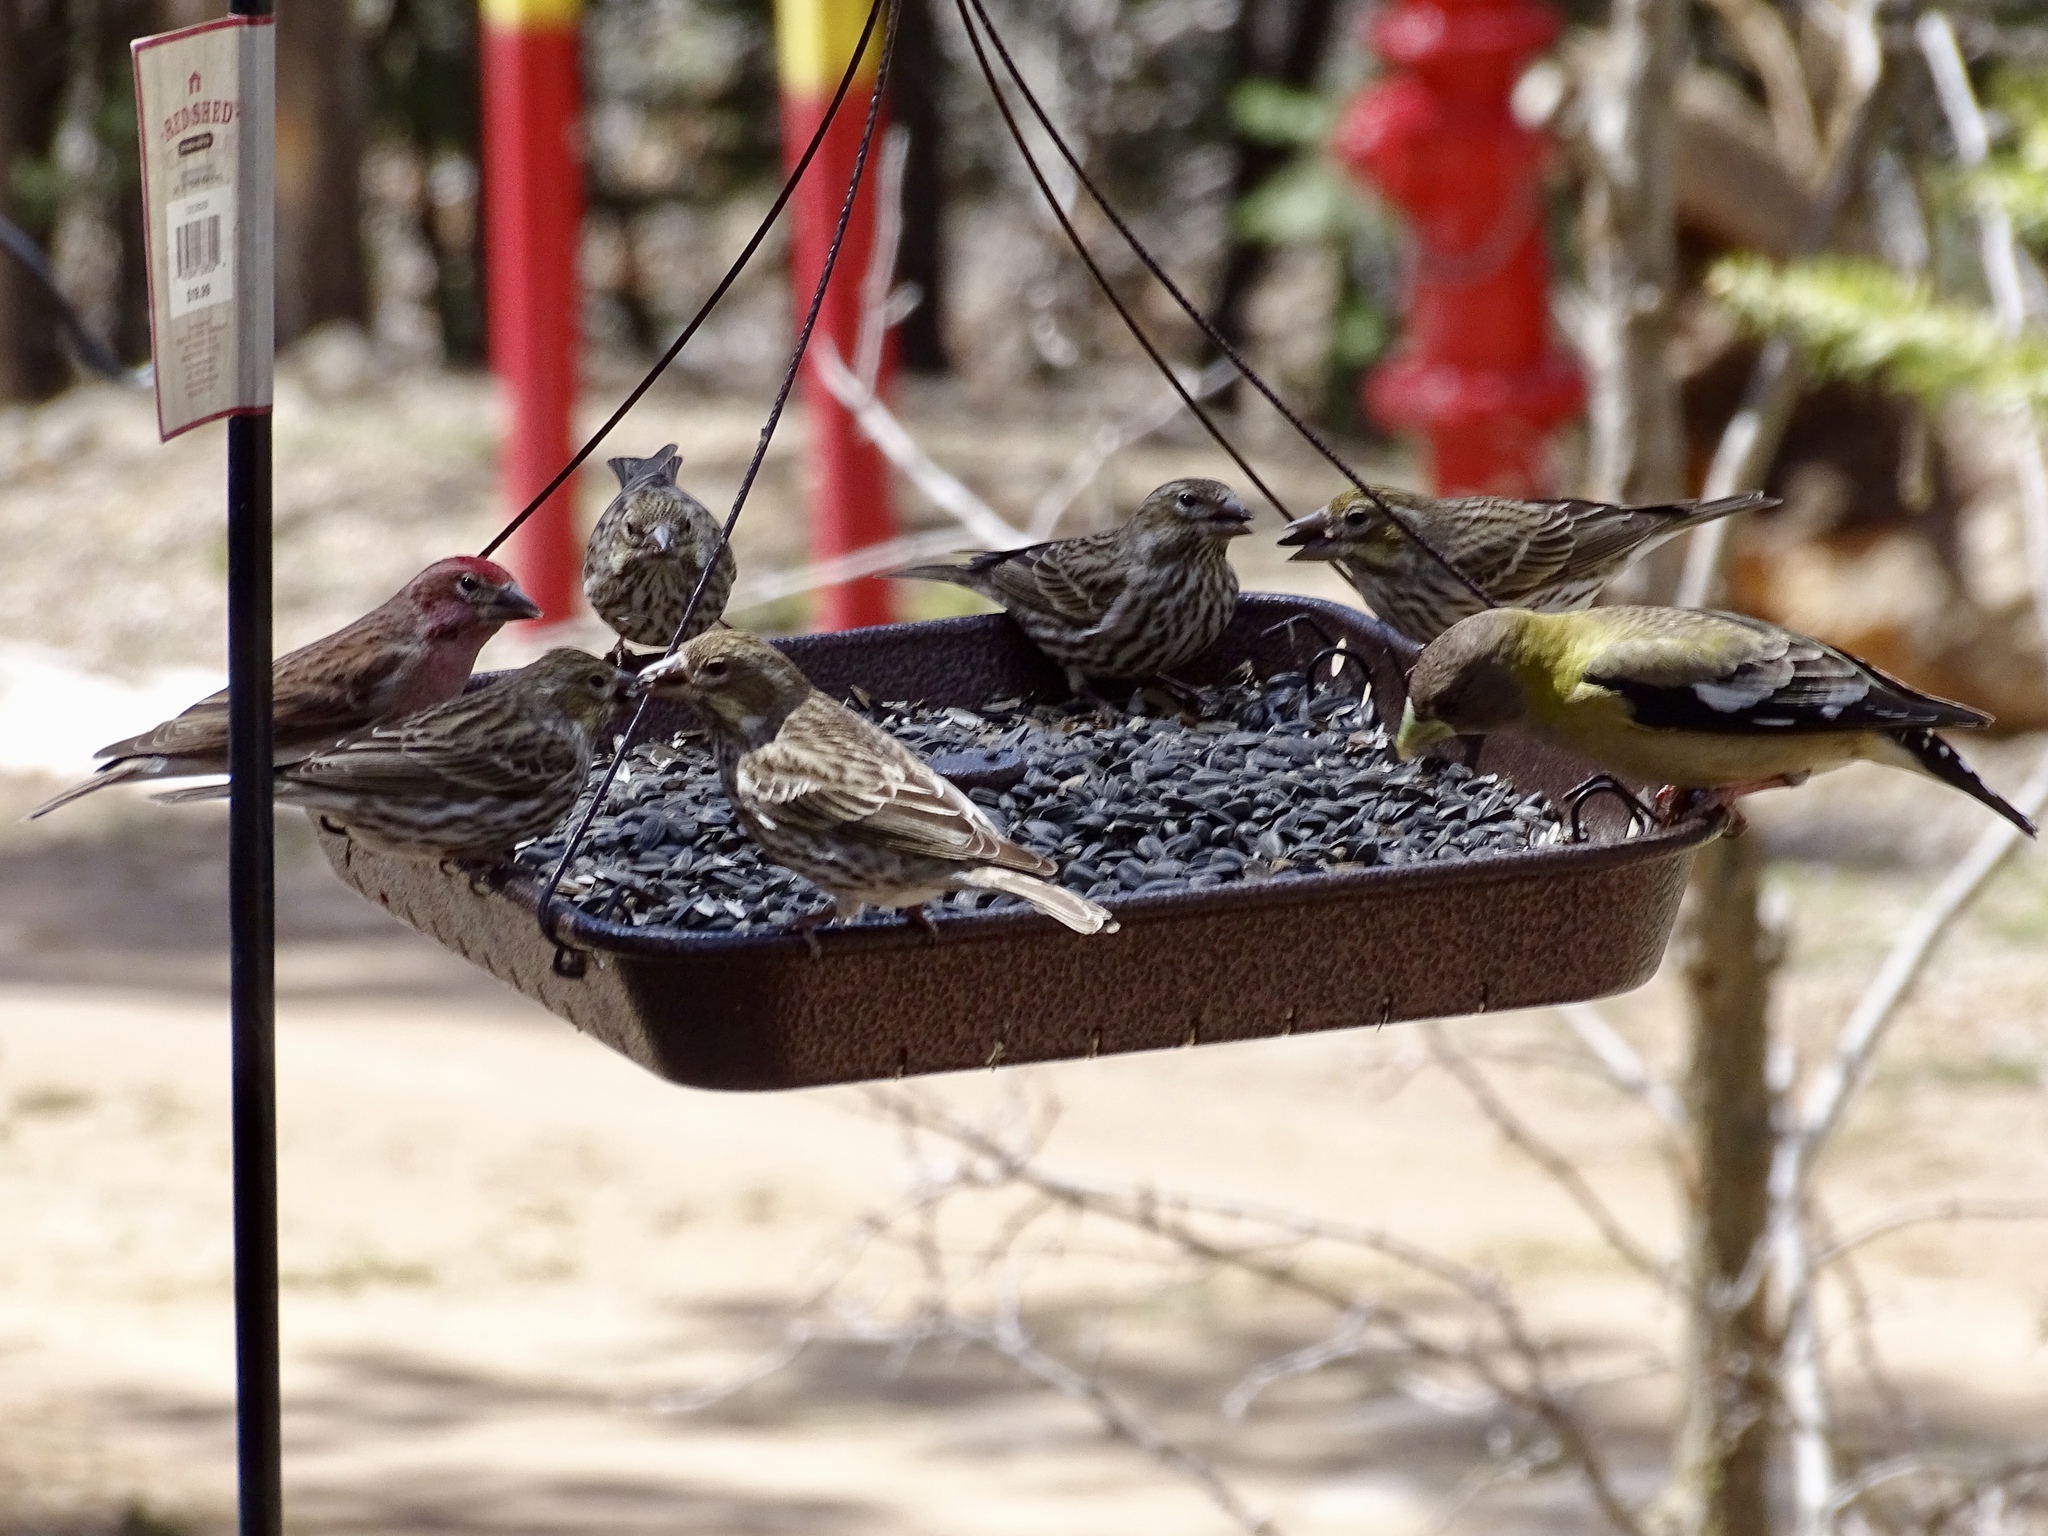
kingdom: Animalia
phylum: Chordata
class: Aves
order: Passeriformes
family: Fringillidae
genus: Haemorhous
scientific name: Haemorhous cassinii
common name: Cassin's finch
